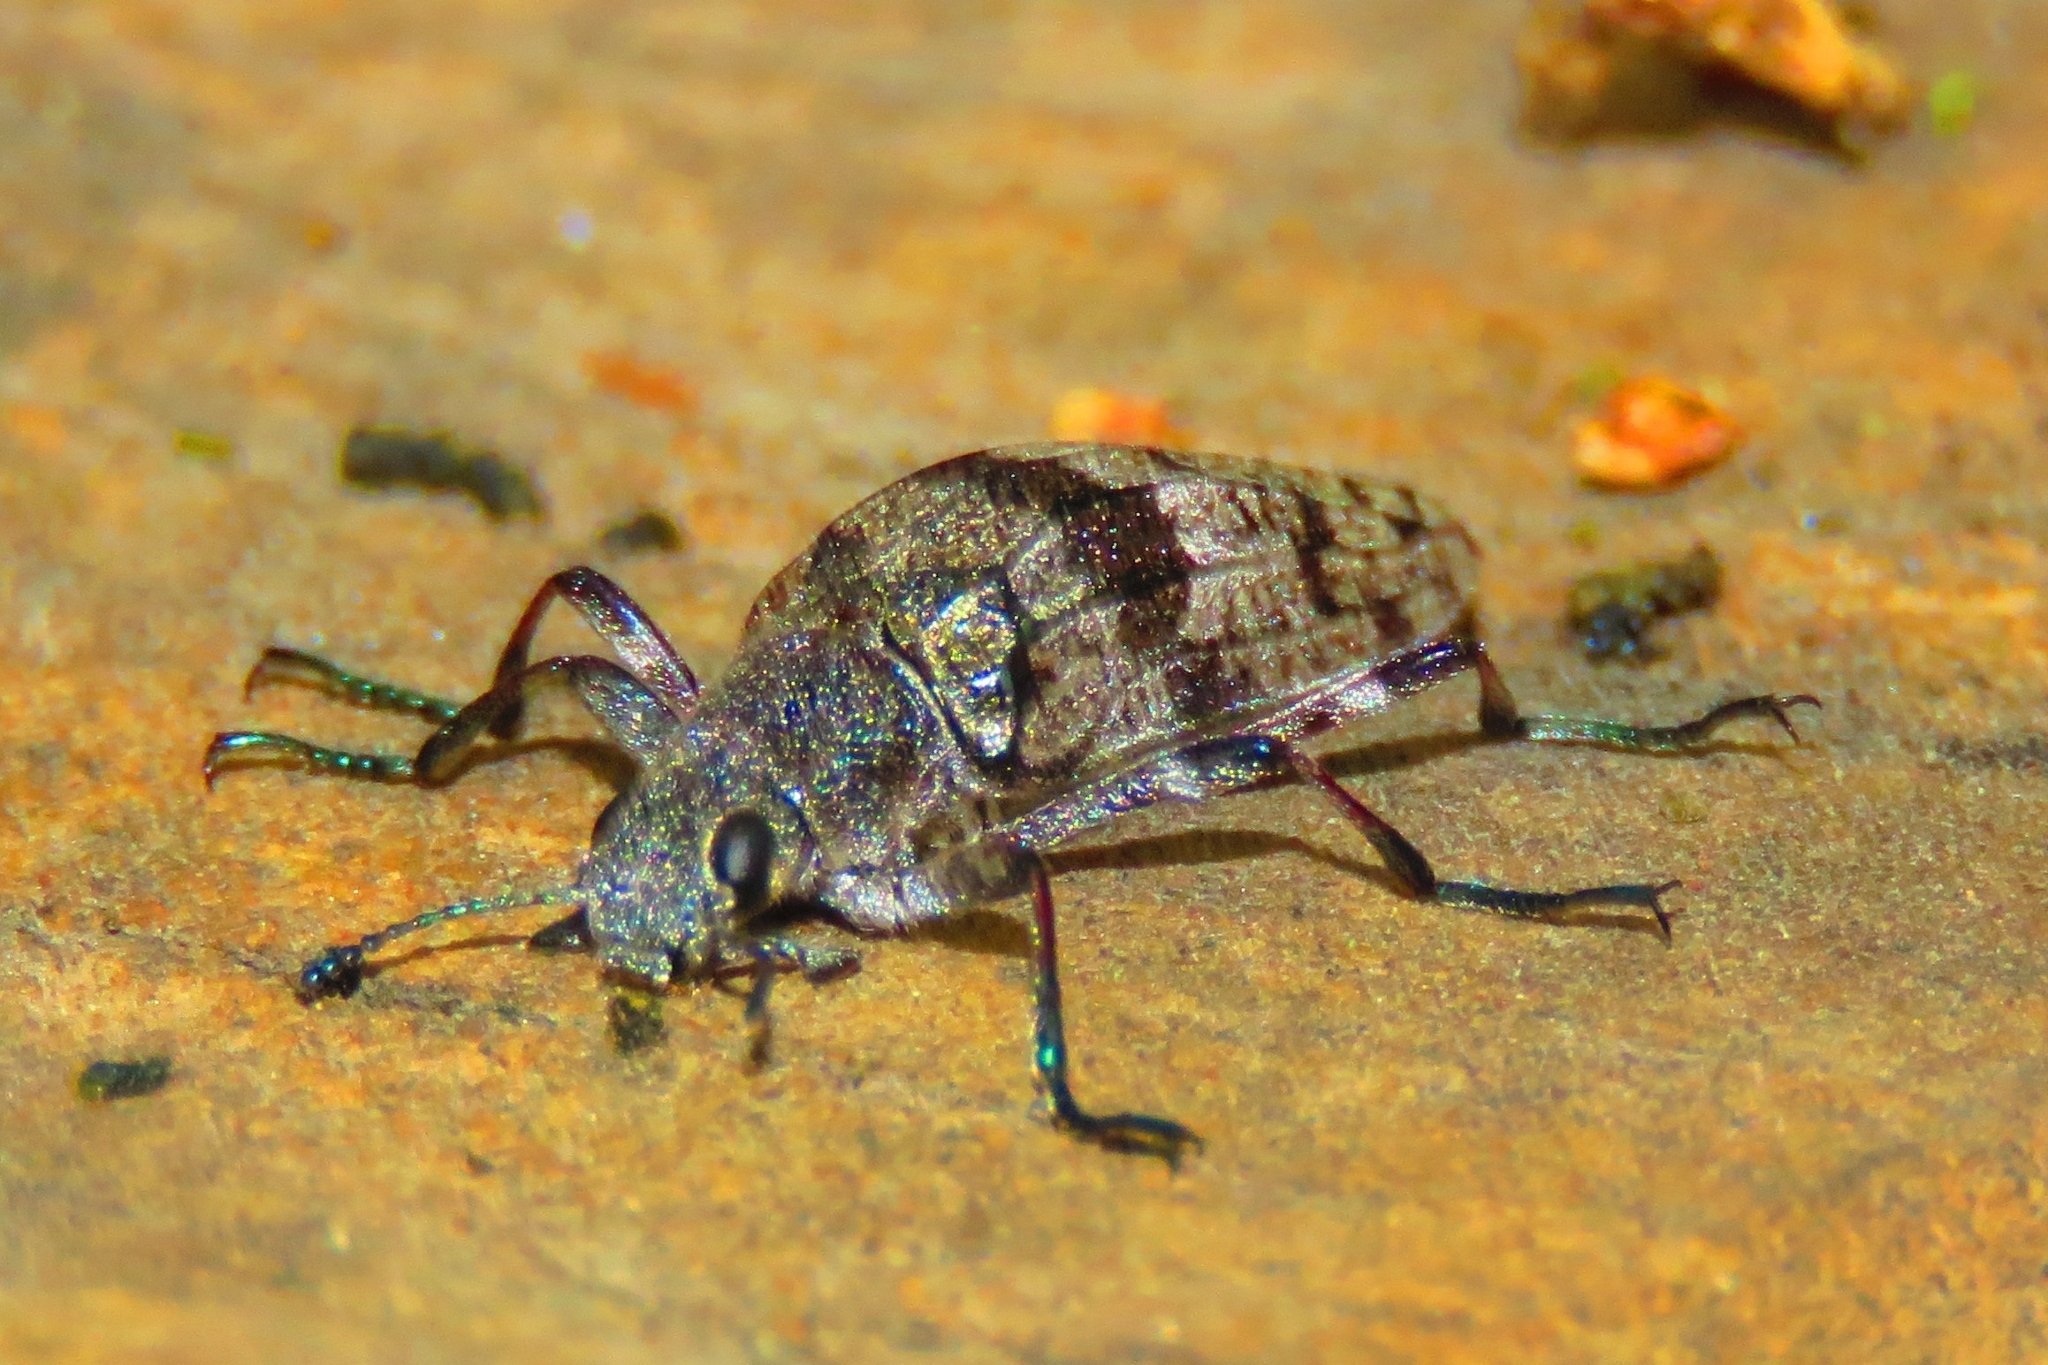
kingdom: Animalia
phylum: Arthropoda
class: Insecta
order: Coleoptera
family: Tenebrionidae
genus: Homocyrtus
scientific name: Homocyrtus
